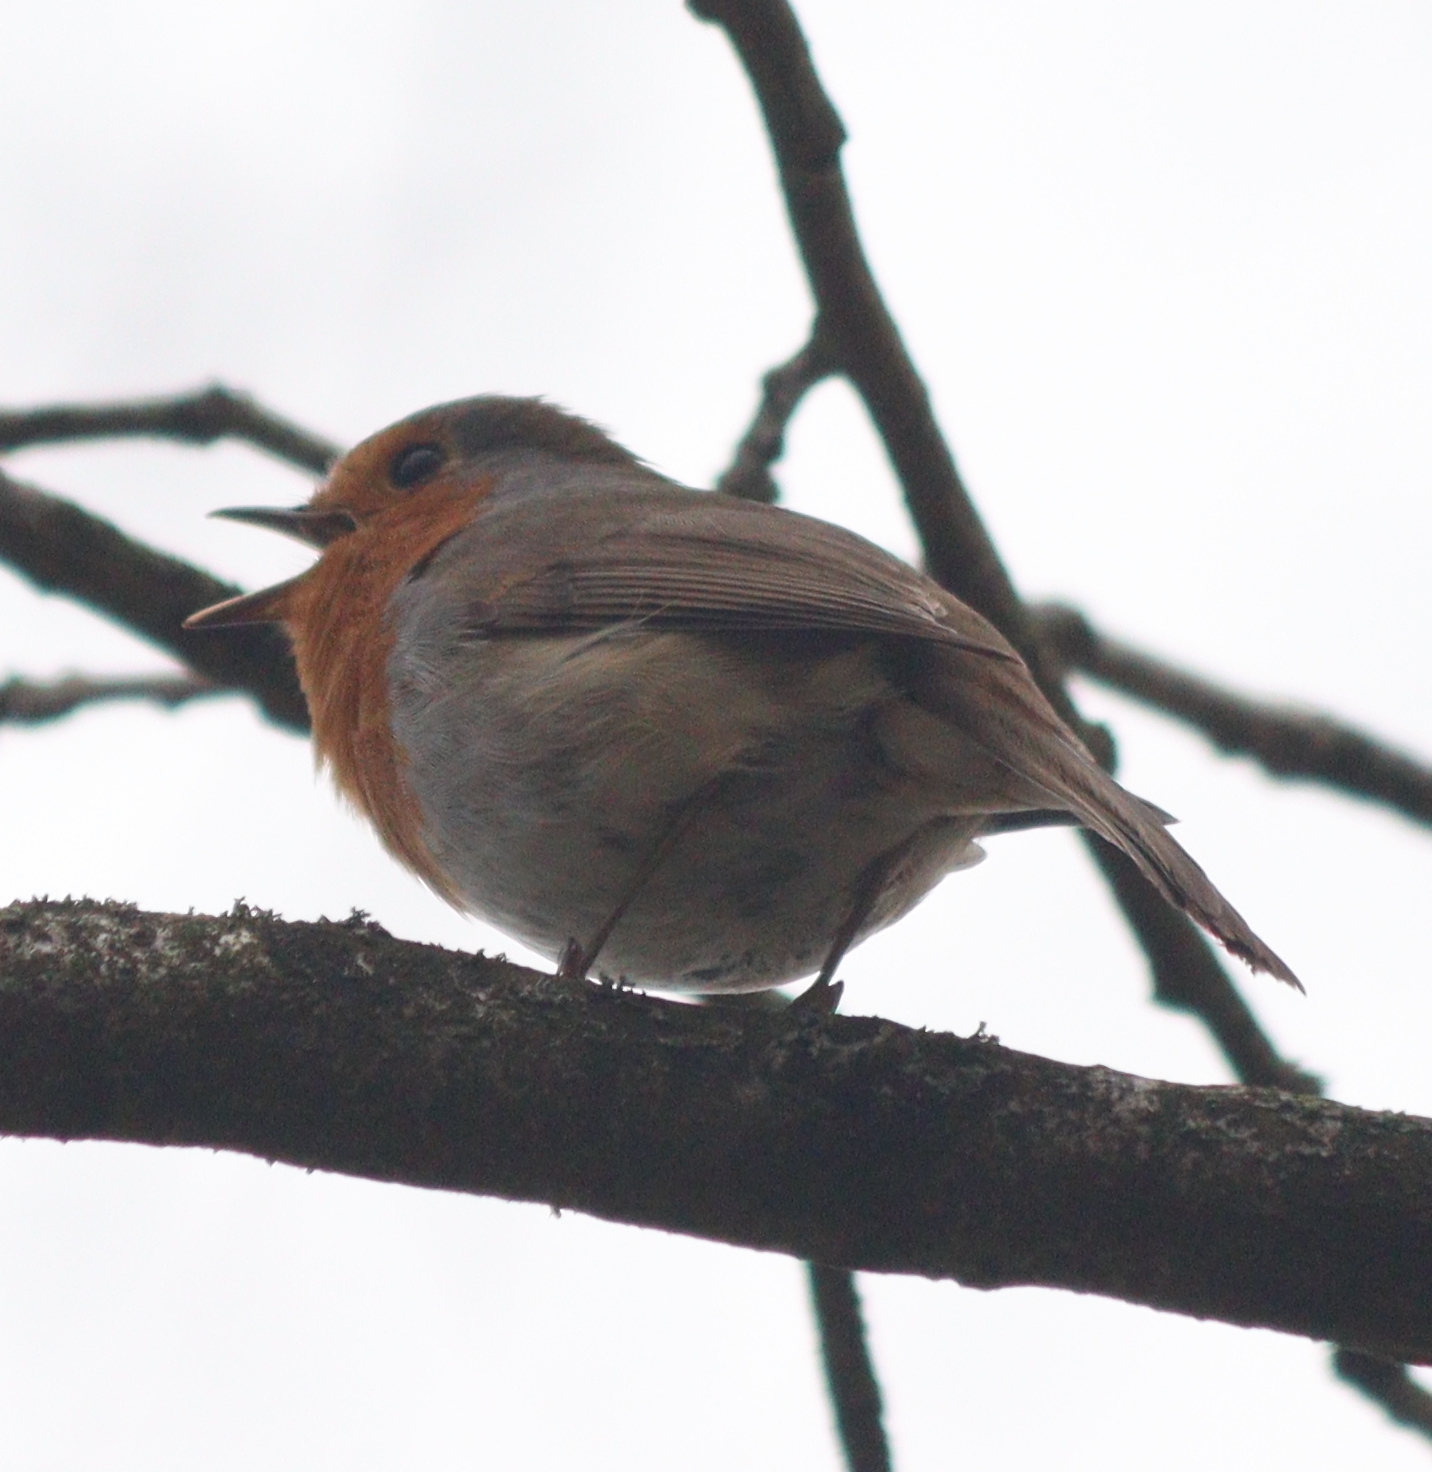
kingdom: Animalia
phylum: Chordata
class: Aves
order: Passeriformes
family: Muscicapidae
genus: Erithacus
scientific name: Erithacus rubecula
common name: European robin
